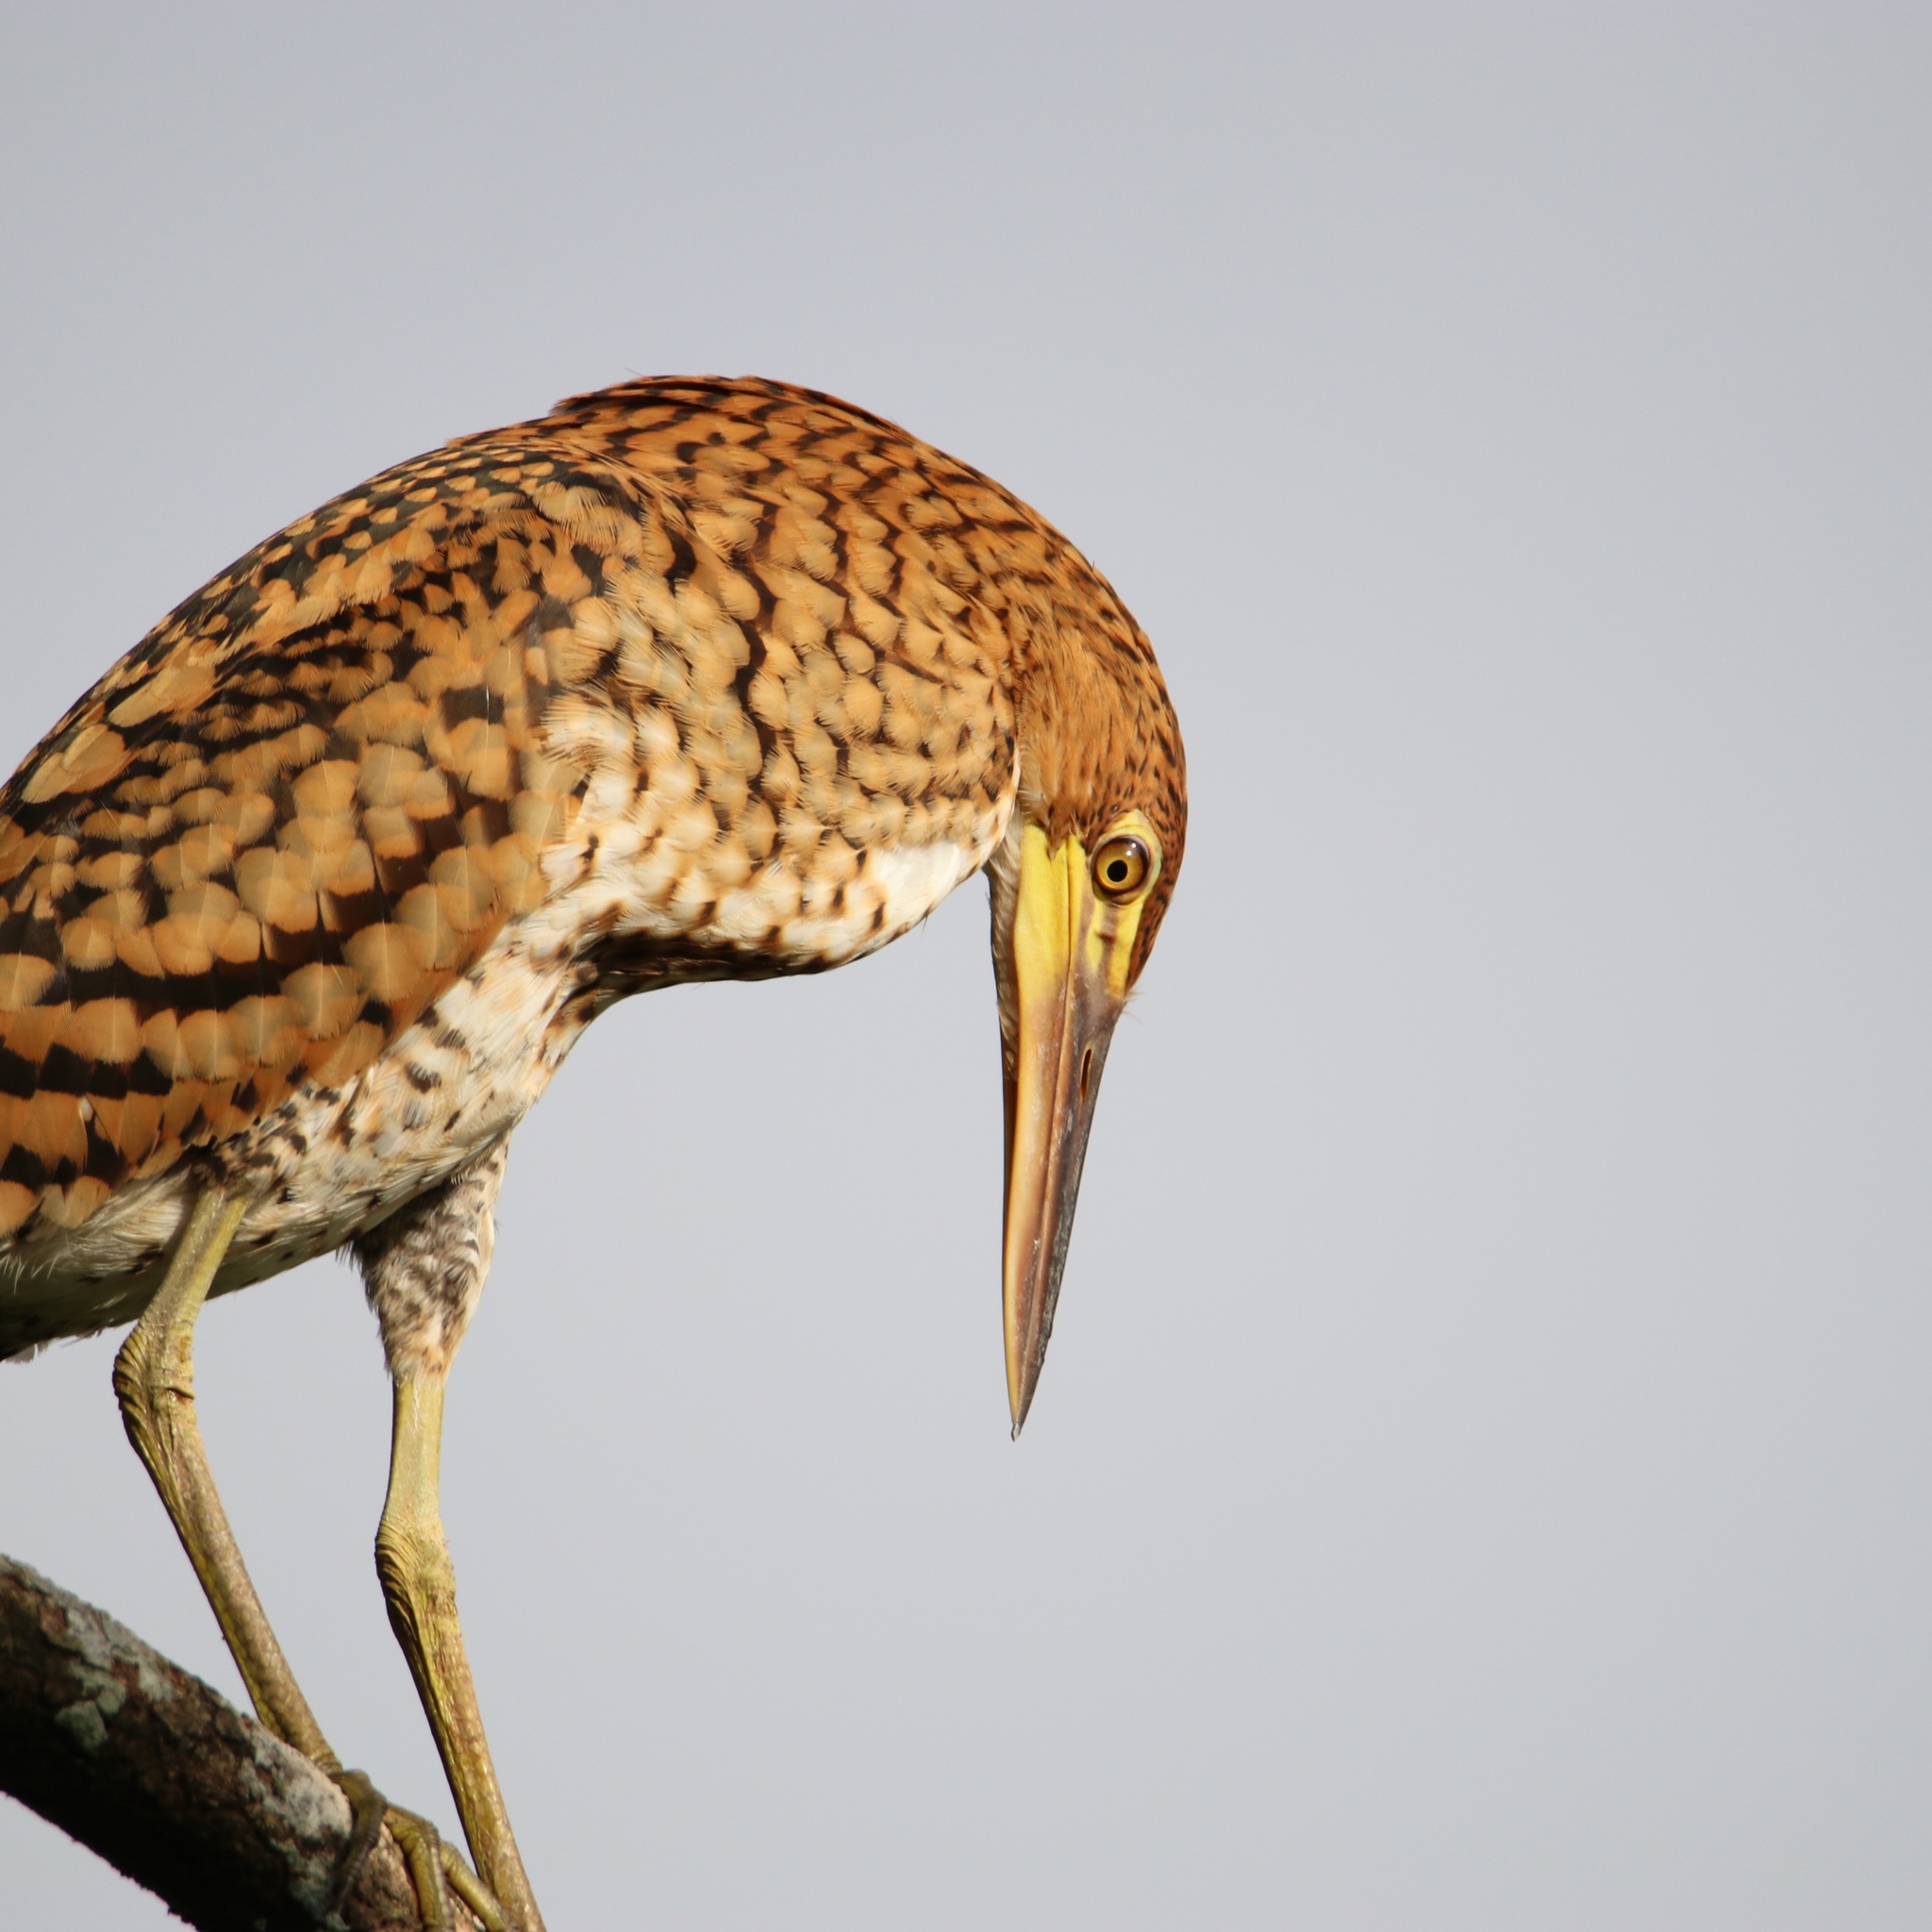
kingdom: Animalia
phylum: Chordata
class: Aves
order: Pelecaniformes
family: Ardeidae
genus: Tigrisoma
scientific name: Tigrisoma lineatum
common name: Rufescent tiger-heron
